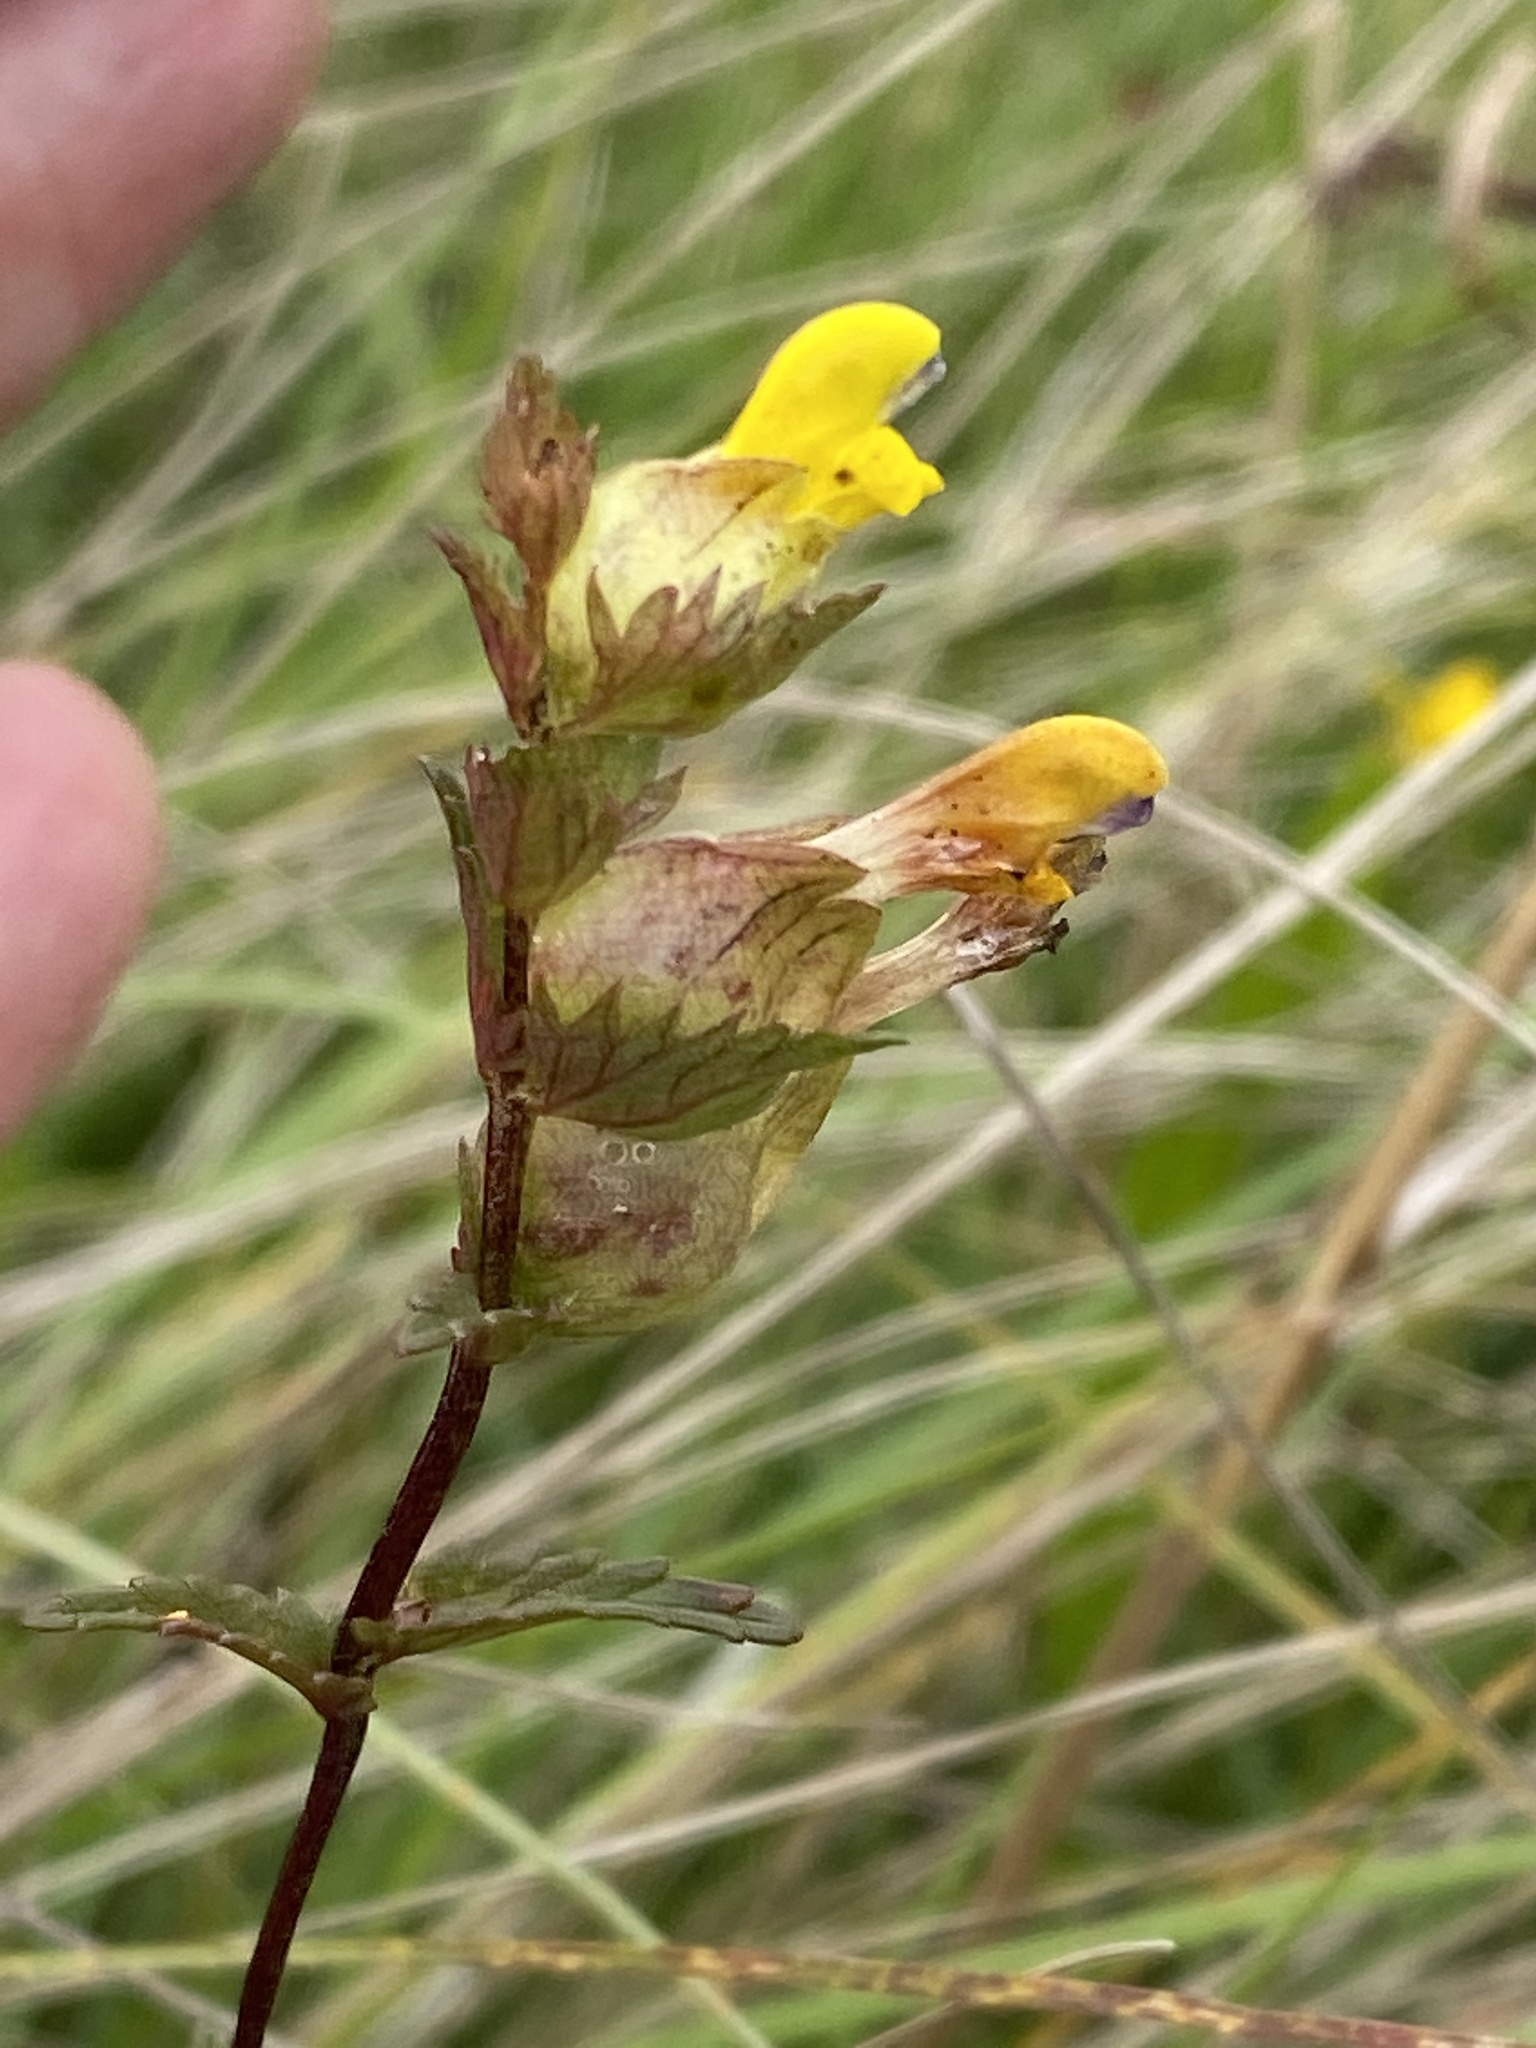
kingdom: Plantae
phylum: Tracheophyta
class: Magnoliopsida
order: Lamiales
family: Orobanchaceae
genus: Rhinanthus
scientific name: Rhinanthus minor
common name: Yellow-rattle
